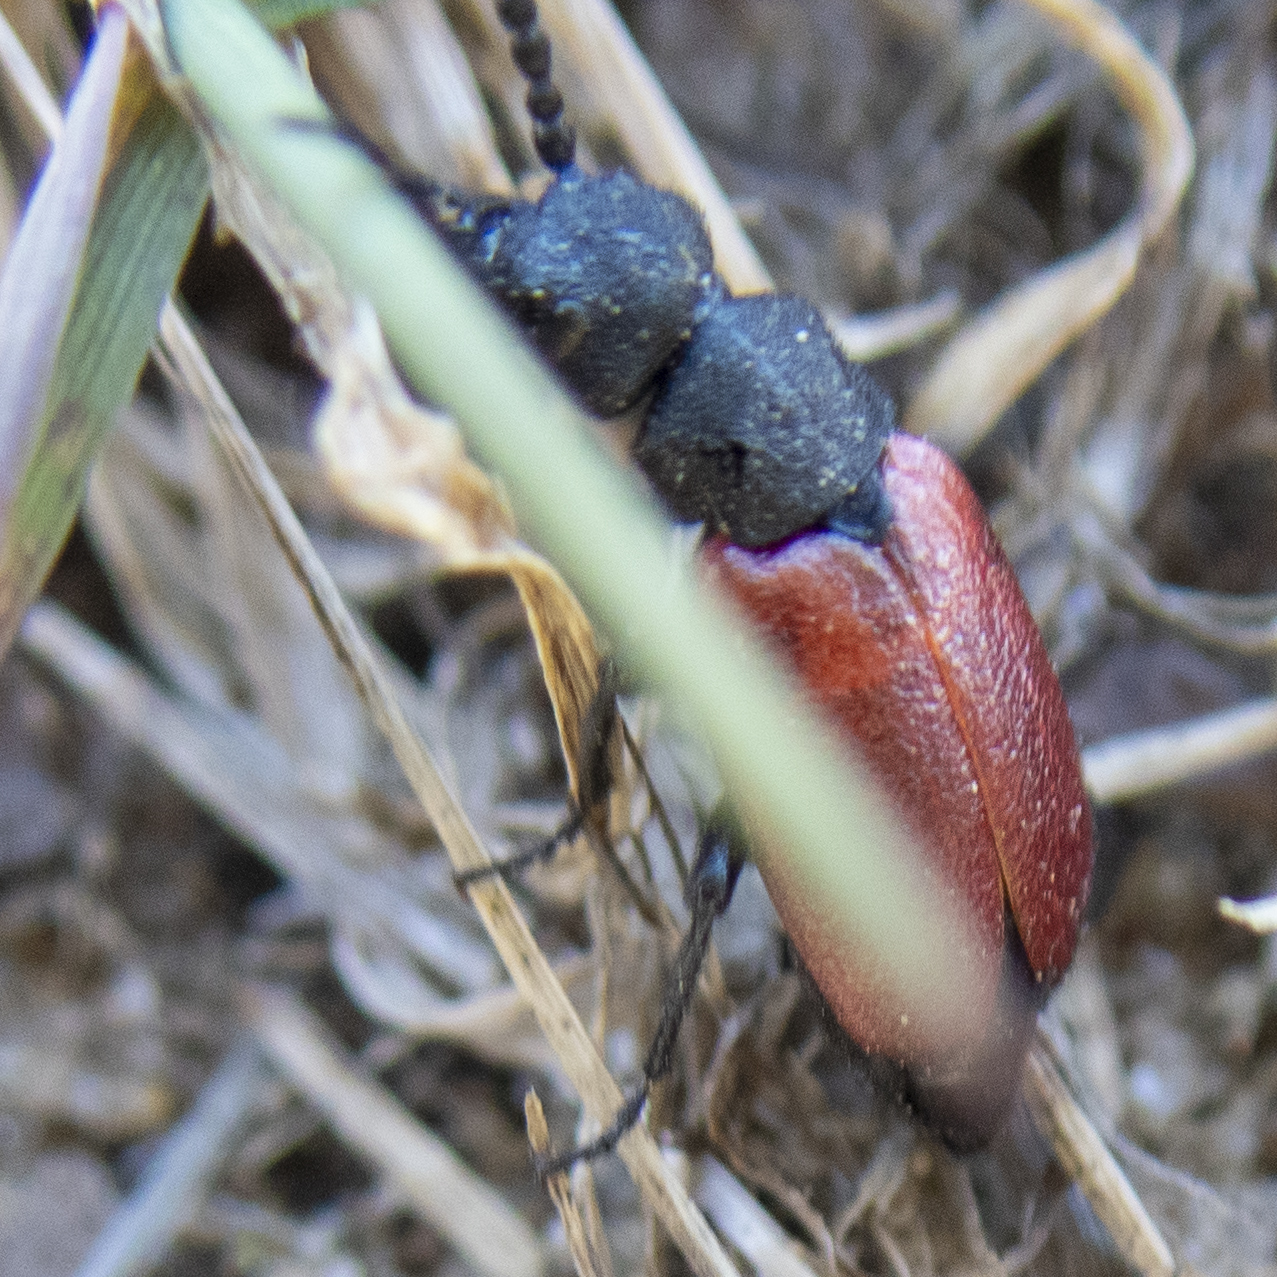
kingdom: Animalia
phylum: Arthropoda
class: Insecta
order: Coleoptera
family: Meloidae
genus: Tricrania
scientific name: Tricrania sanguinipennis
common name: Blood-winged blister beetle
